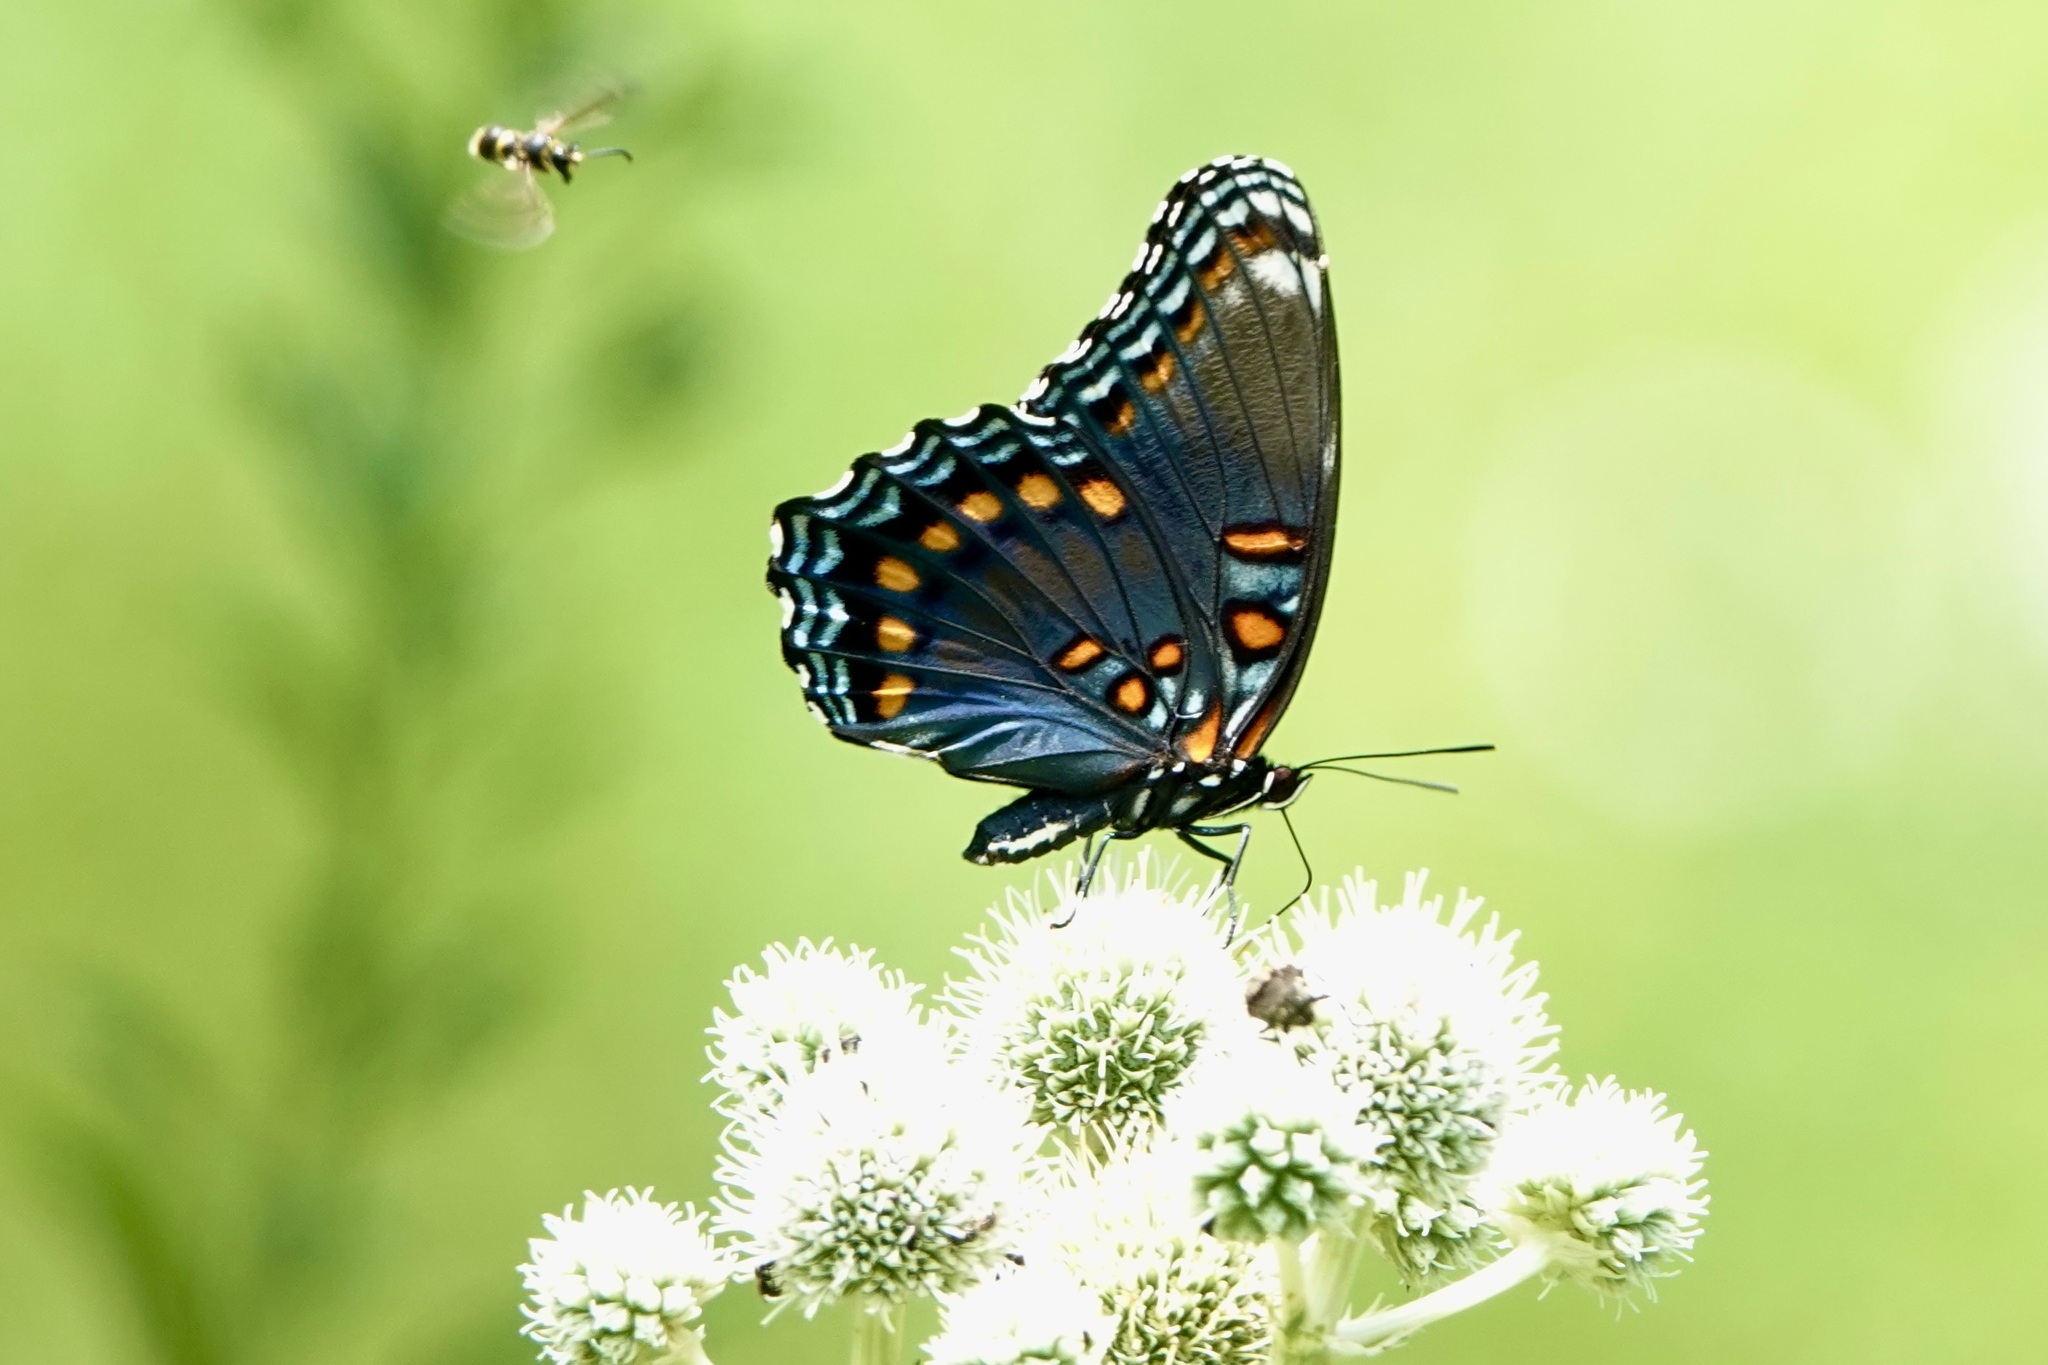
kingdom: Animalia
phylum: Arthropoda
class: Insecta
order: Lepidoptera
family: Nymphalidae
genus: Limenitis
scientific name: Limenitis astyanax
